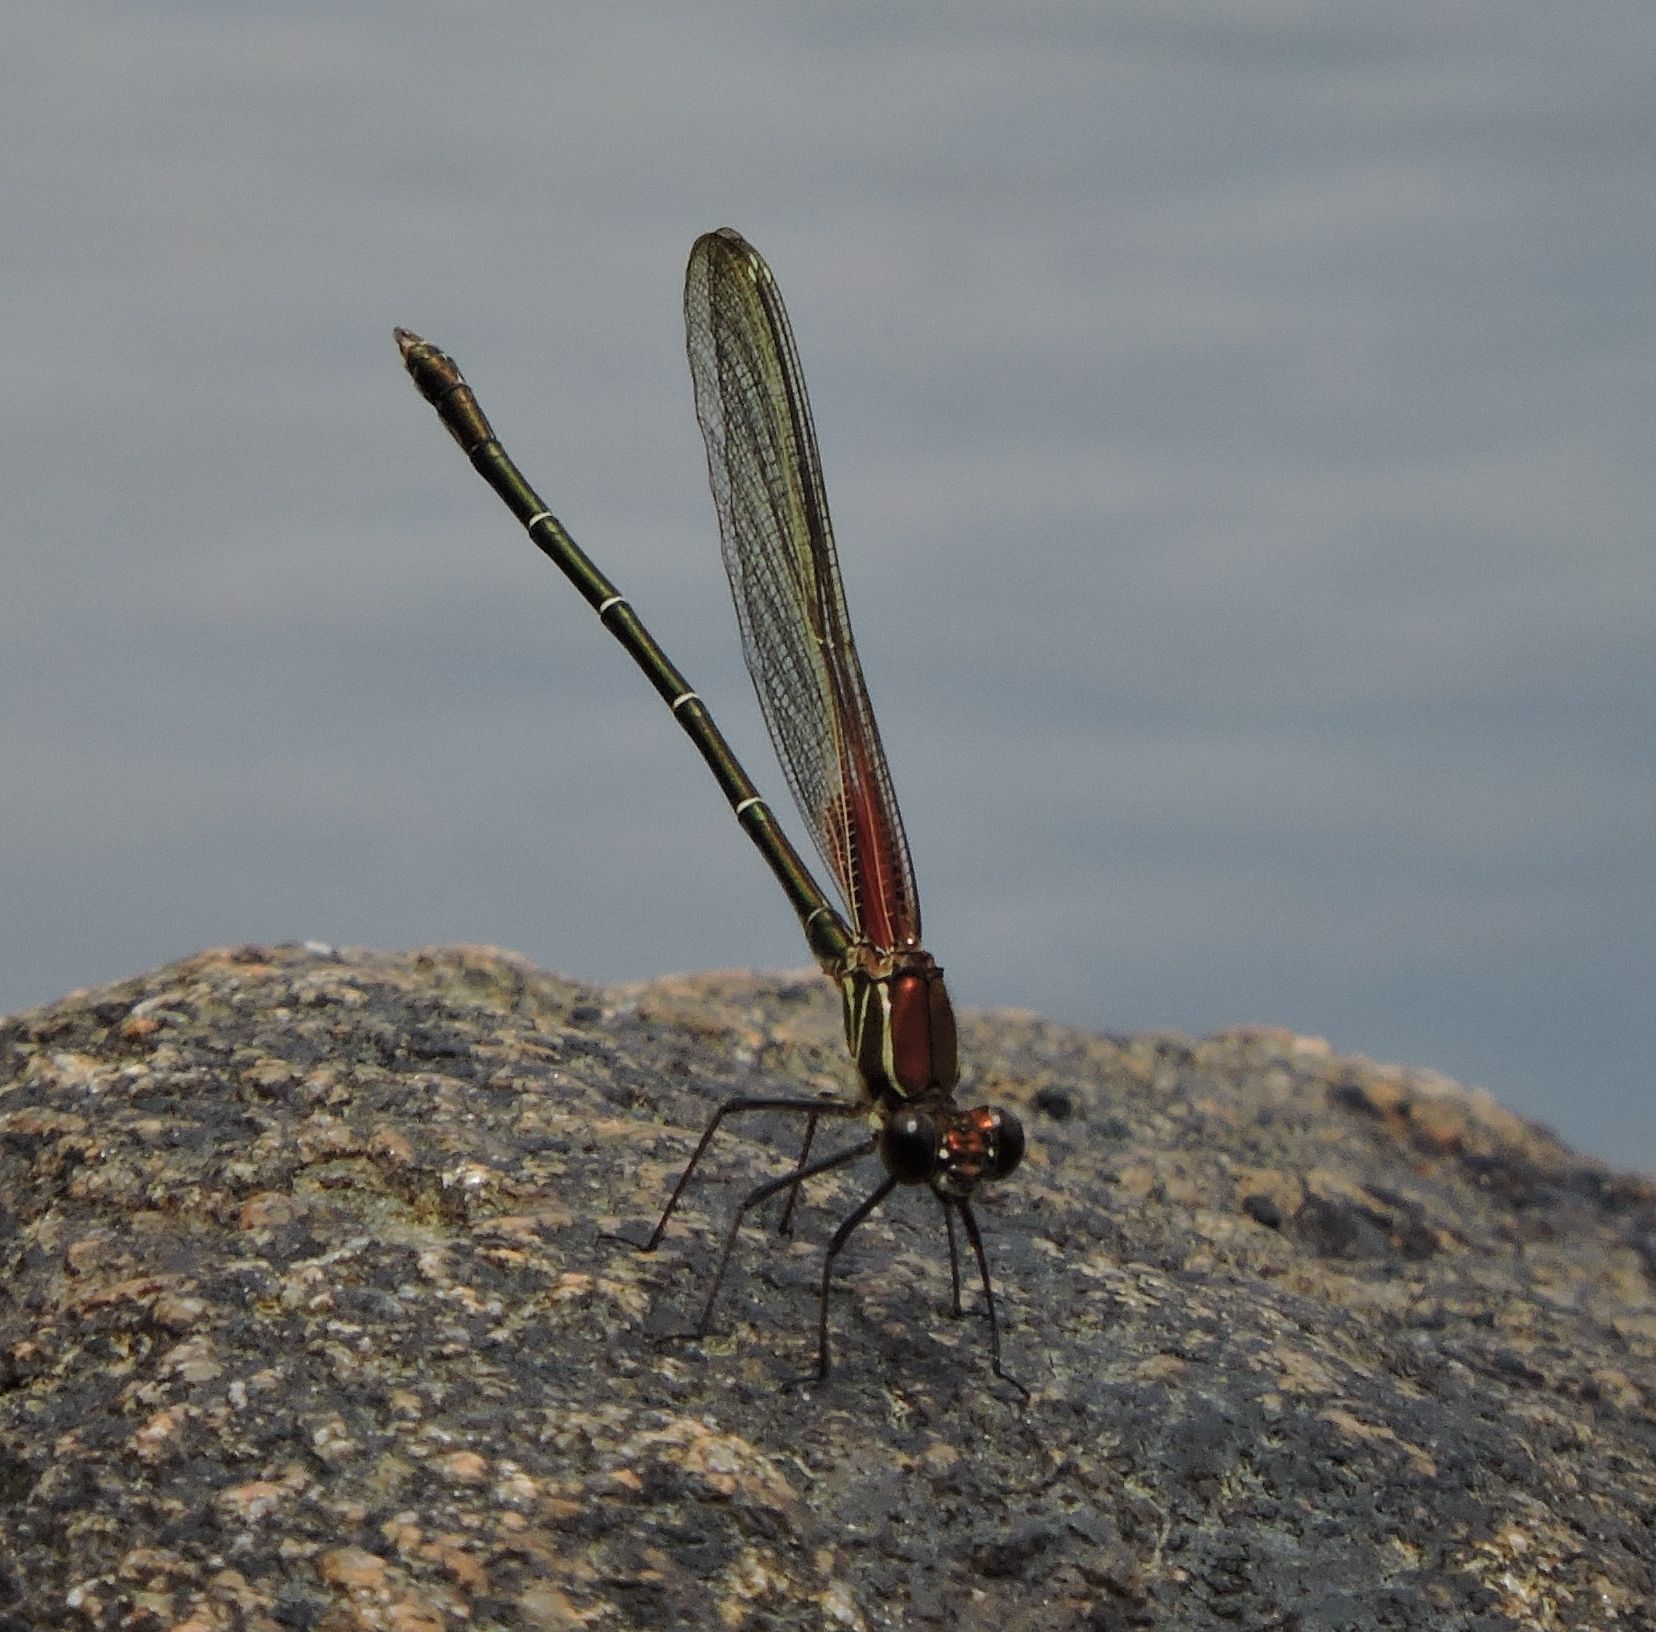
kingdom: Animalia
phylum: Arthropoda
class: Insecta
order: Odonata
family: Calopterygidae
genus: Hetaerina
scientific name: Hetaerina americana
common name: American rubyspot
